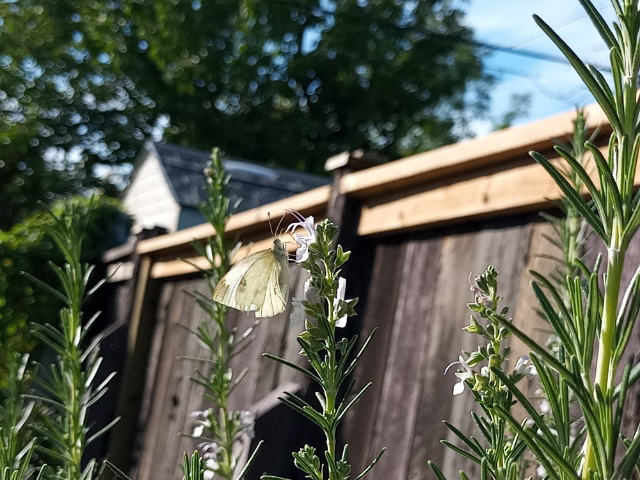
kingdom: Animalia
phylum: Arthropoda
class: Insecta
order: Lepidoptera
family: Pieridae
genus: Pieris
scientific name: Pieris rapae
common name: Small white
